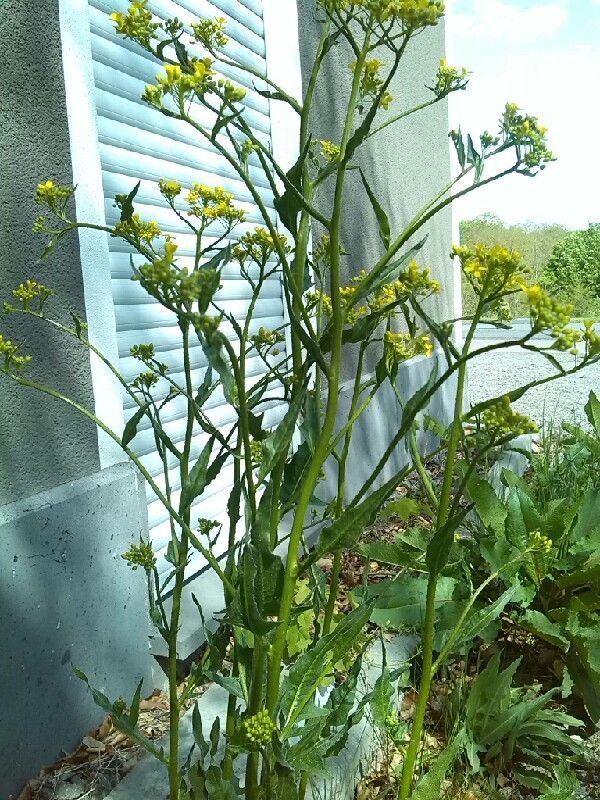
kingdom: Plantae
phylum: Tracheophyta
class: Magnoliopsida
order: Brassicales
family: Brassicaceae
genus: Bunias
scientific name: Bunias orientalis
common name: Warty-cabbage
